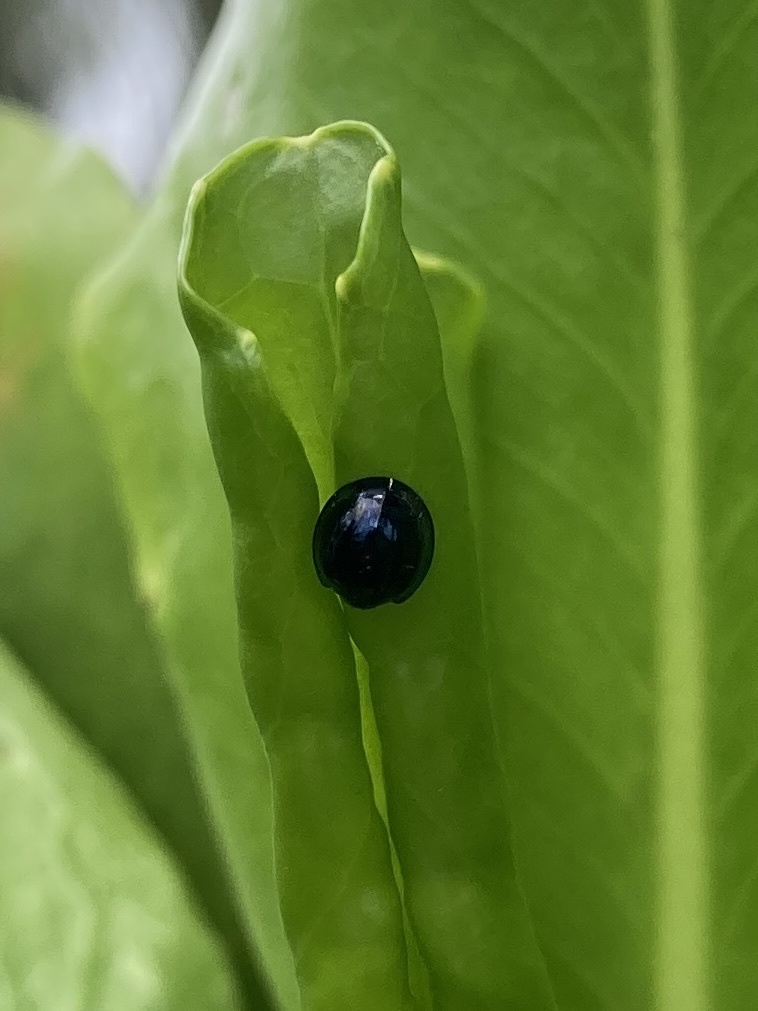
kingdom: Animalia
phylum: Arthropoda
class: Insecta
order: Coleoptera
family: Coccinellidae
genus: Chilocorus
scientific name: Chilocorus nigritus
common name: Ladybird beetle
